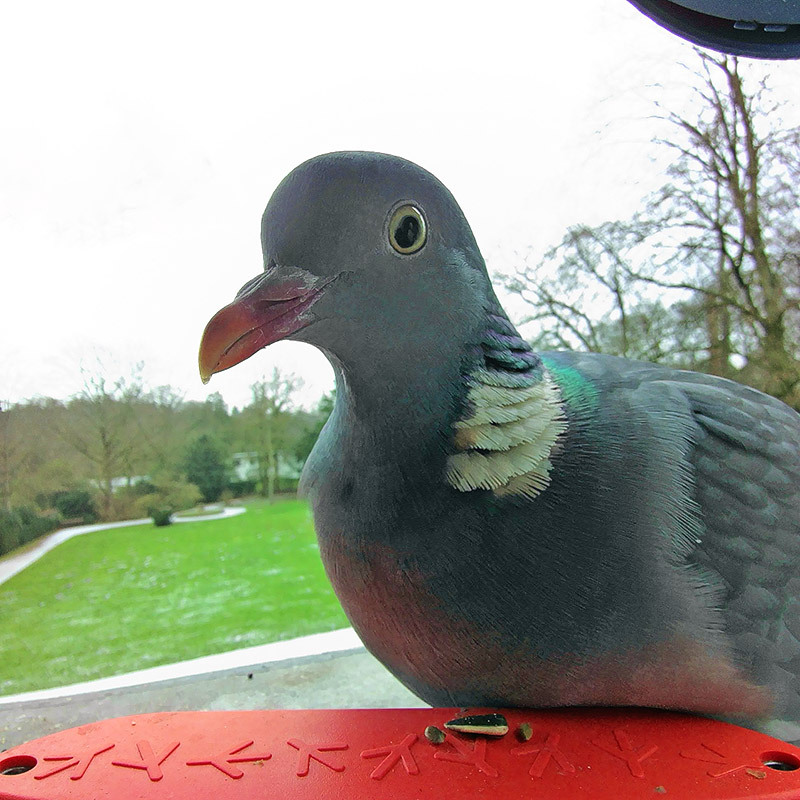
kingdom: Animalia
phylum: Chordata
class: Aves
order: Columbiformes
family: Columbidae
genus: Columba
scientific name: Columba palumbus
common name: Common wood pigeon
